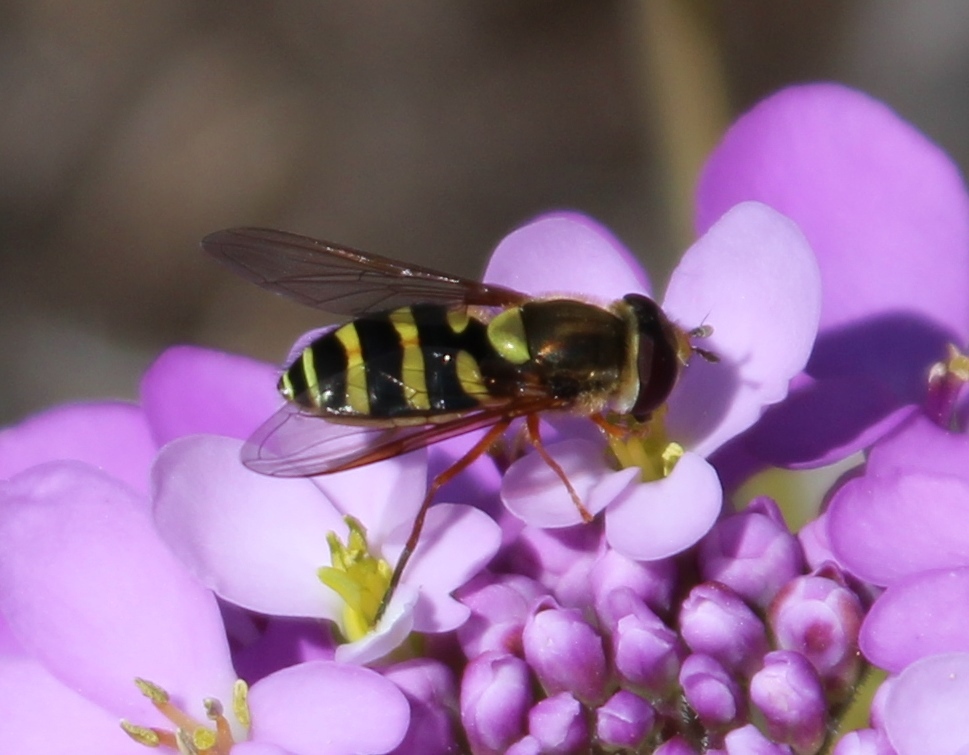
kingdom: Animalia
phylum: Arthropoda
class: Insecta
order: Diptera
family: Syrphidae
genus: Syrphus
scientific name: Syrphus opinator
